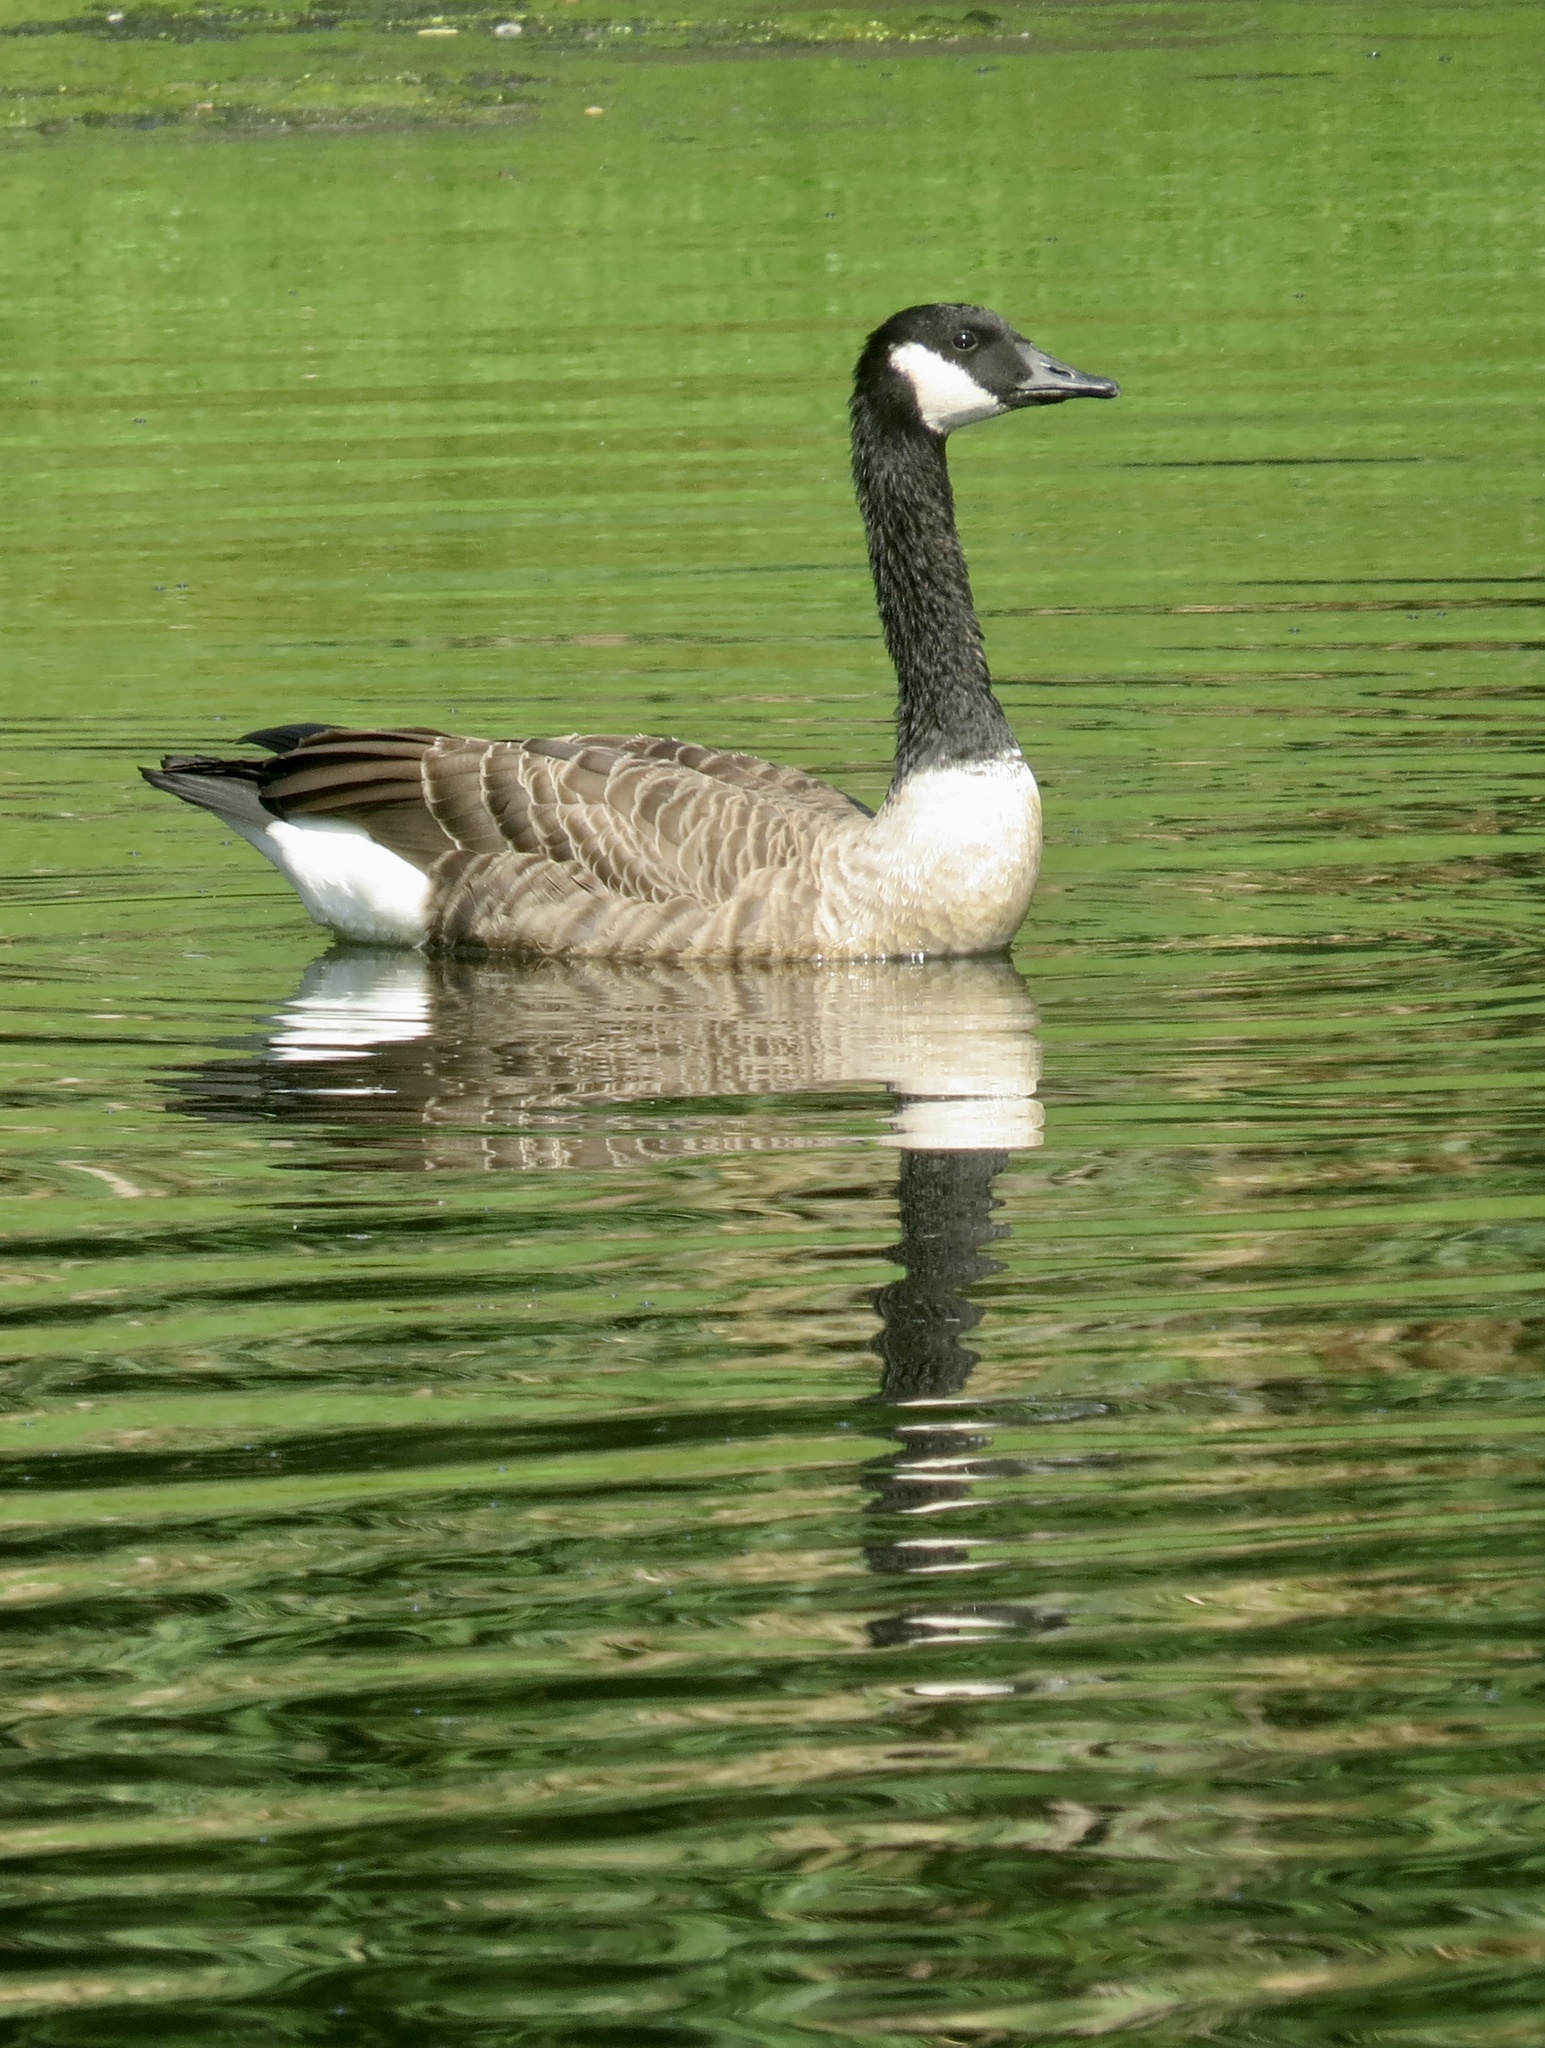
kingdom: Animalia
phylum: Chordata
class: Aves
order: Anseriformes
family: Anatidae
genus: Branta
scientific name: Branta canadensis
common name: Canada goose
